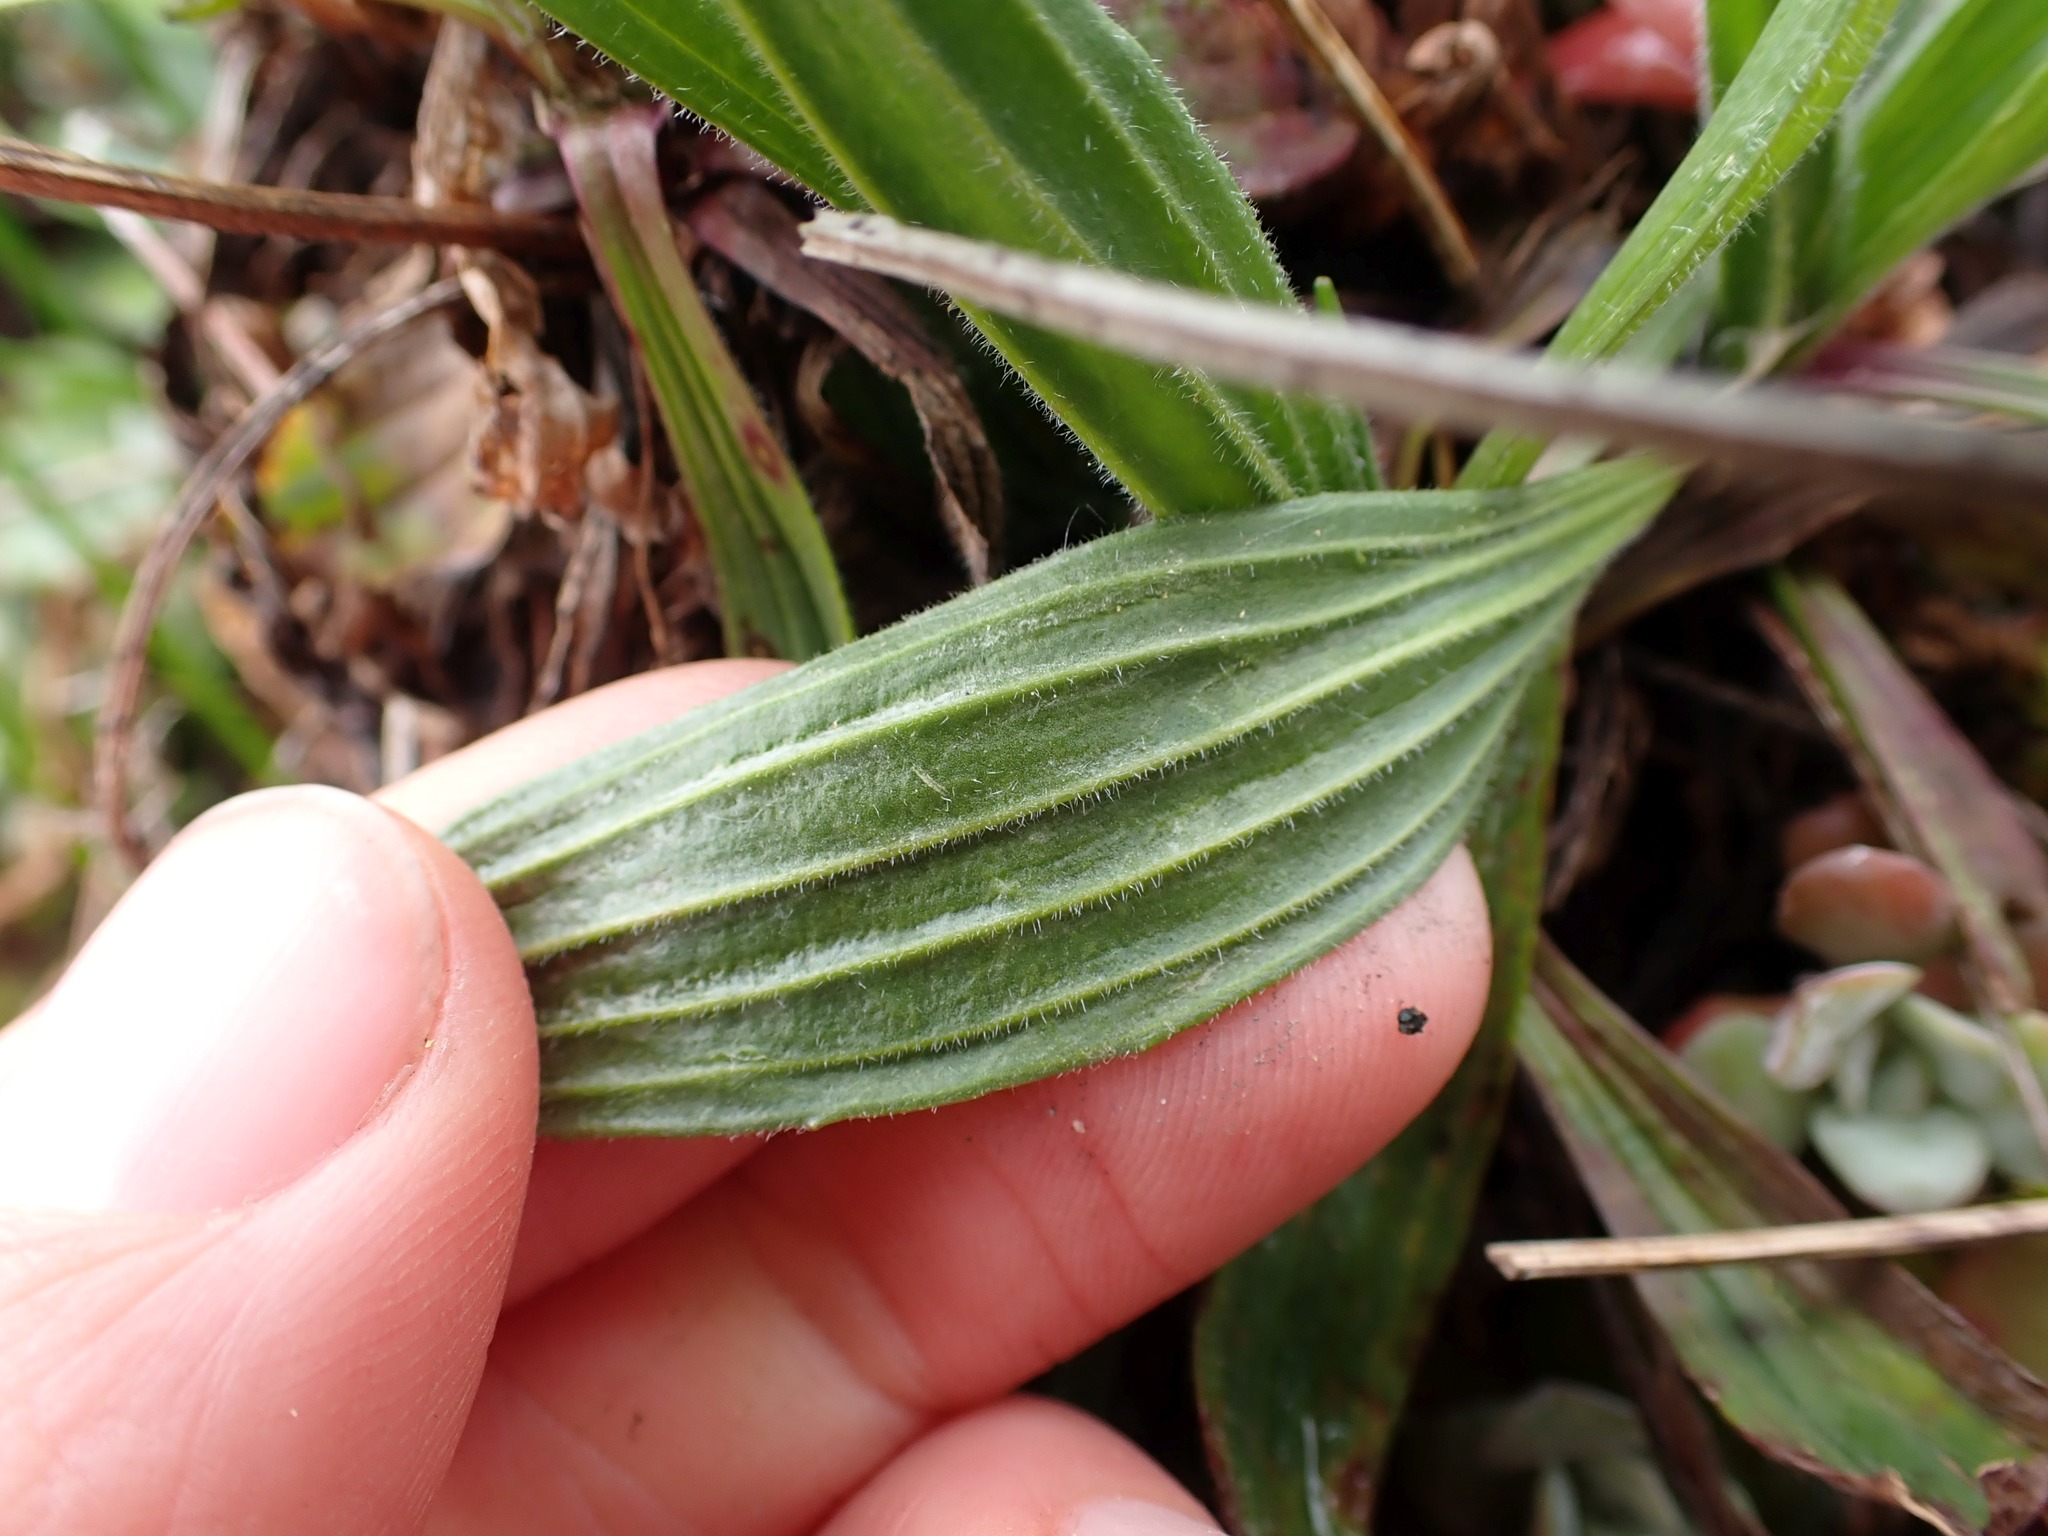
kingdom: Plantae
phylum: Tracheophyta
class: Magnoliopsida
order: Lamiales
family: Plantaginaceae
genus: Plantago
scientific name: Plantago lanceolata
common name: Ribwort plantain
